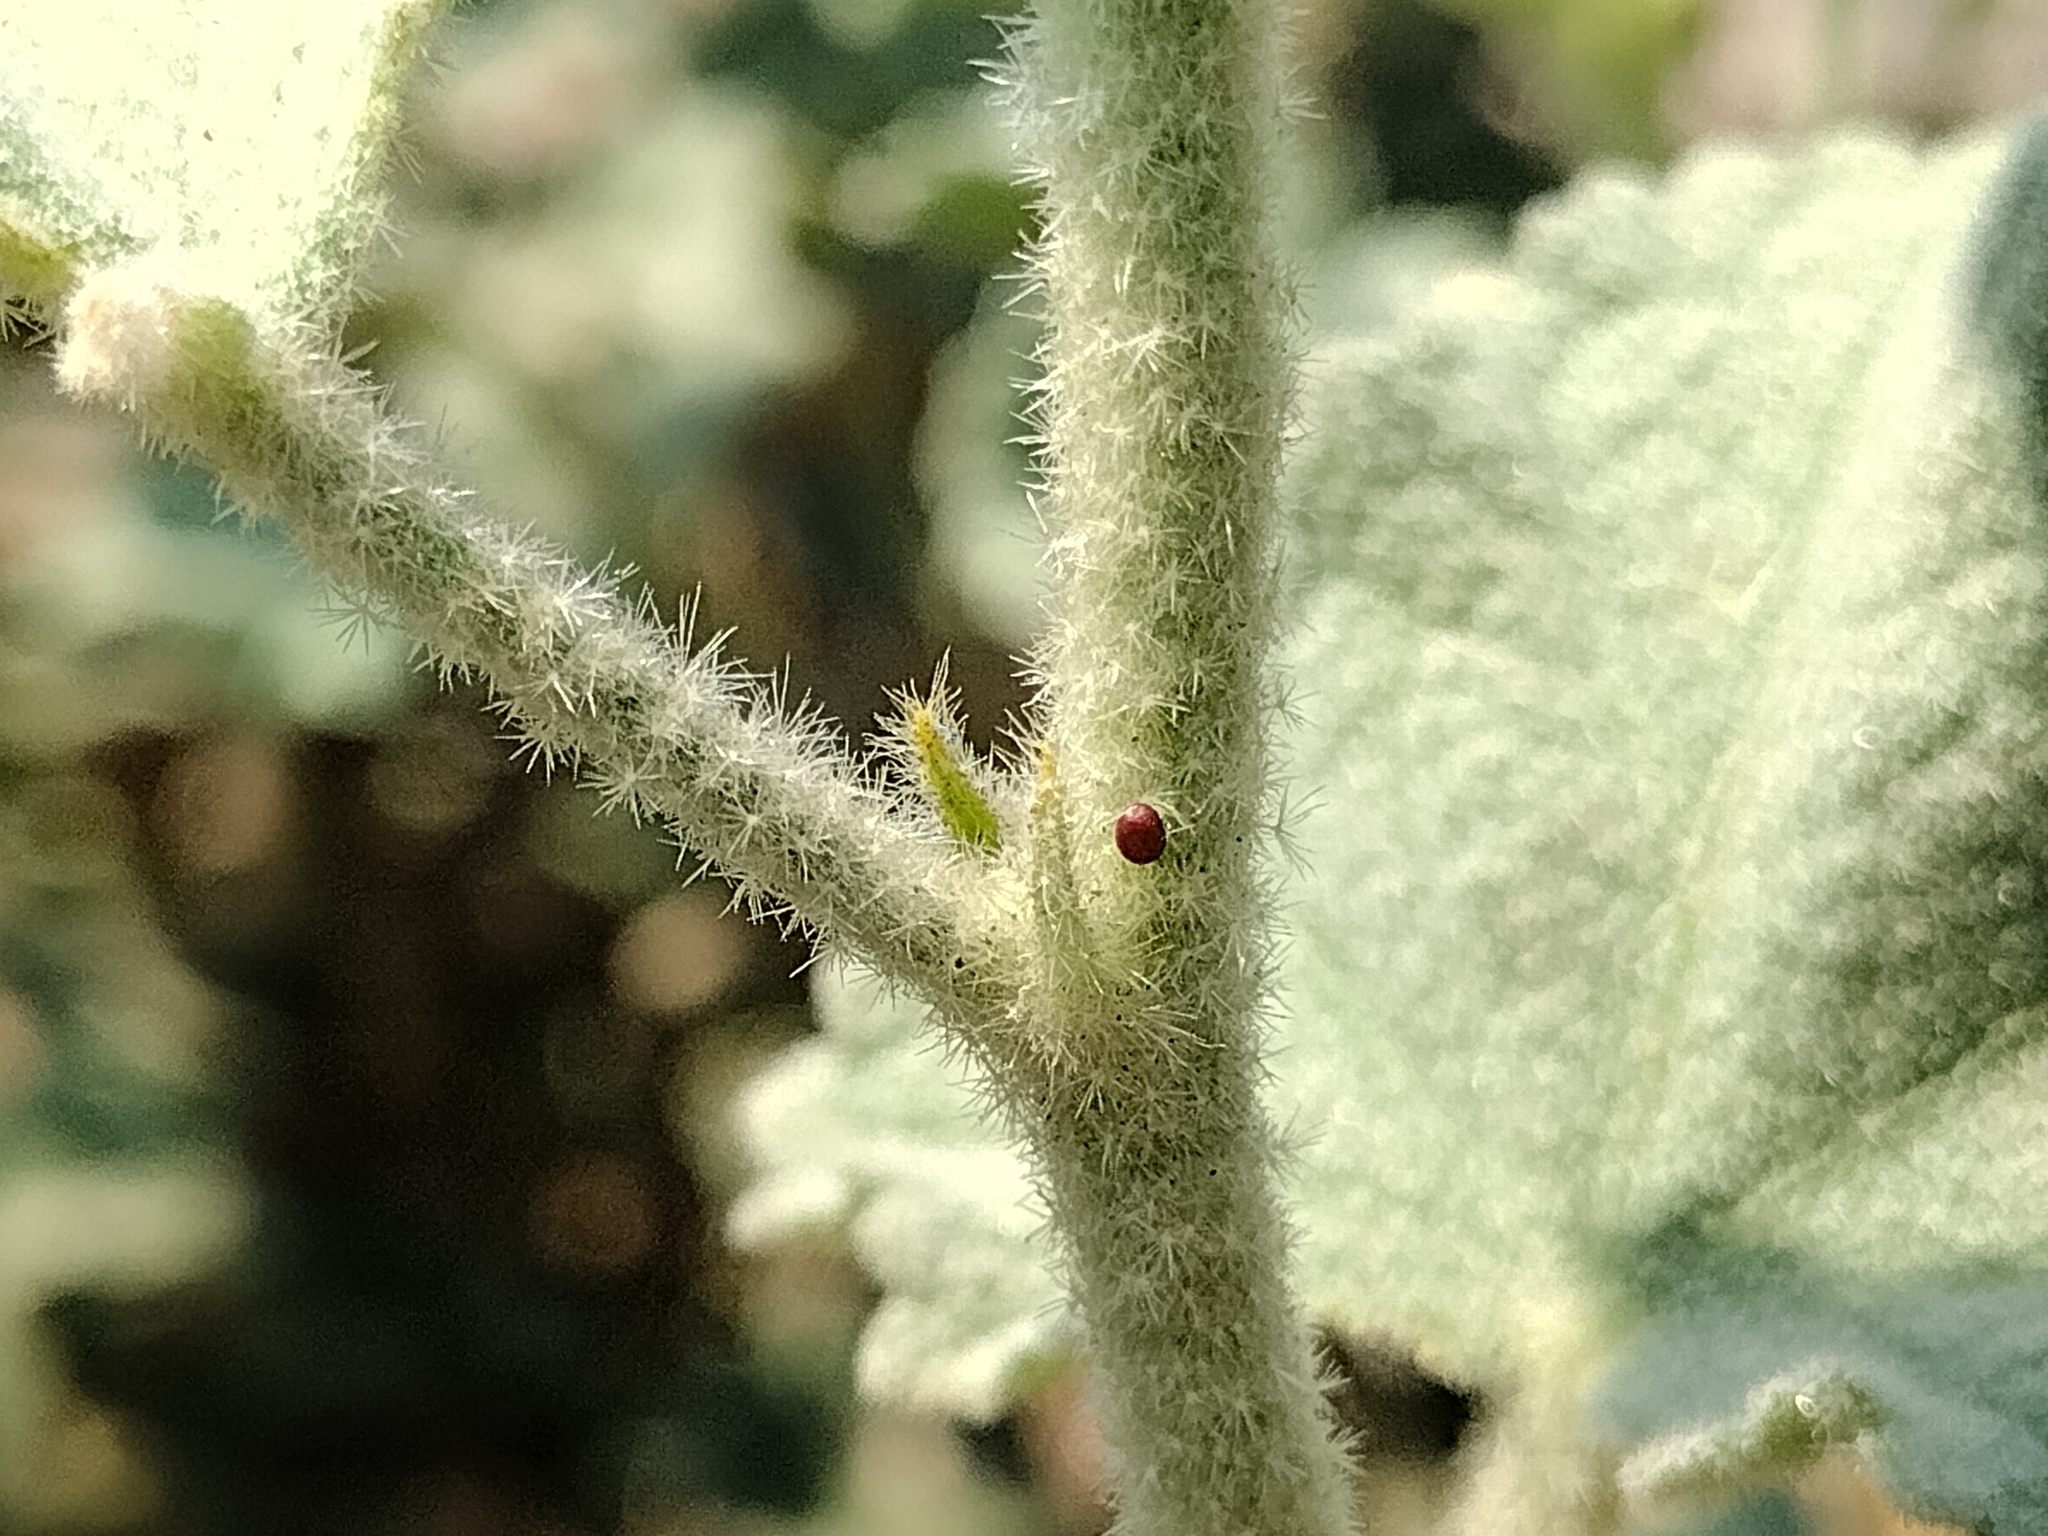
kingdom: Plantae
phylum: Tracheophyta
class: Magnoliopsida
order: Malvales
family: Malvaceae
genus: Malacothamnus
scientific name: Malacothamnus fremontii
